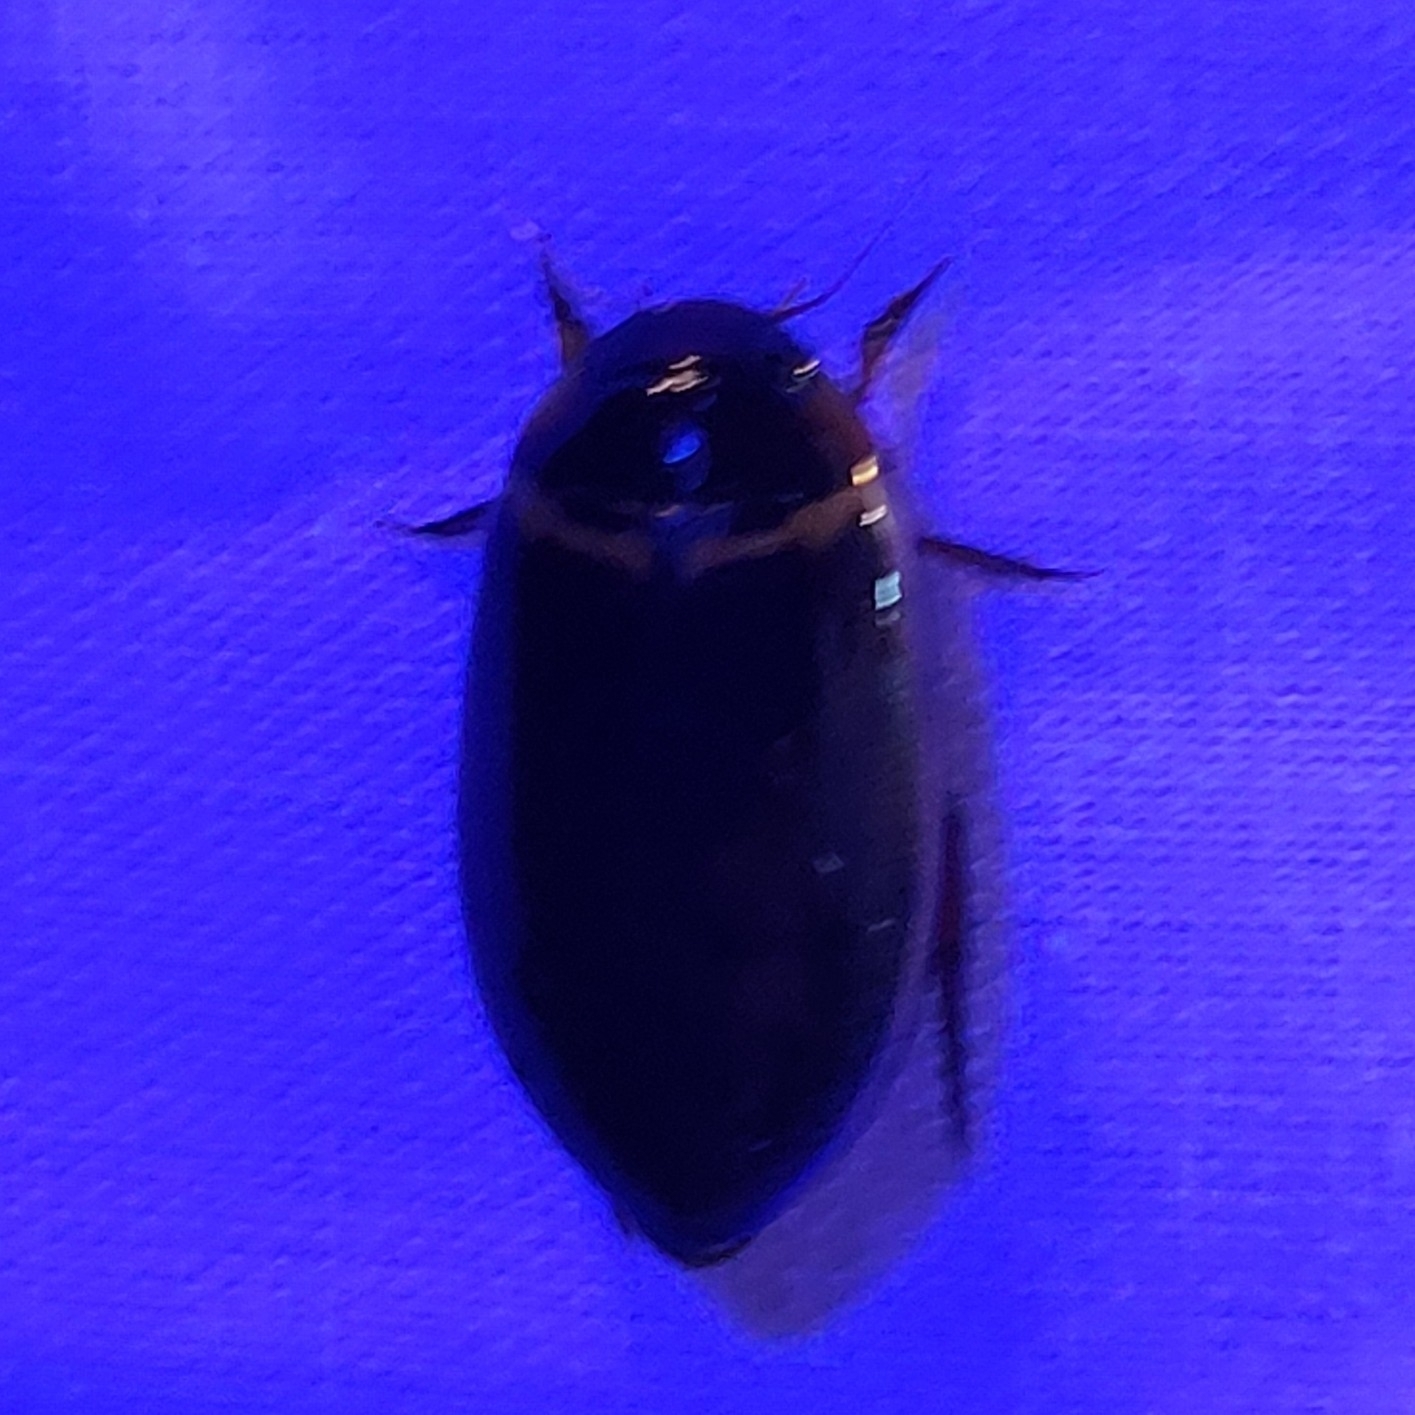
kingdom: Animalia
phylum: Arthropoda
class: Insecta
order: Coleoptera
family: Dytiscidae
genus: Meridiorhantus
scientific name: Meridiorhantus calidus
